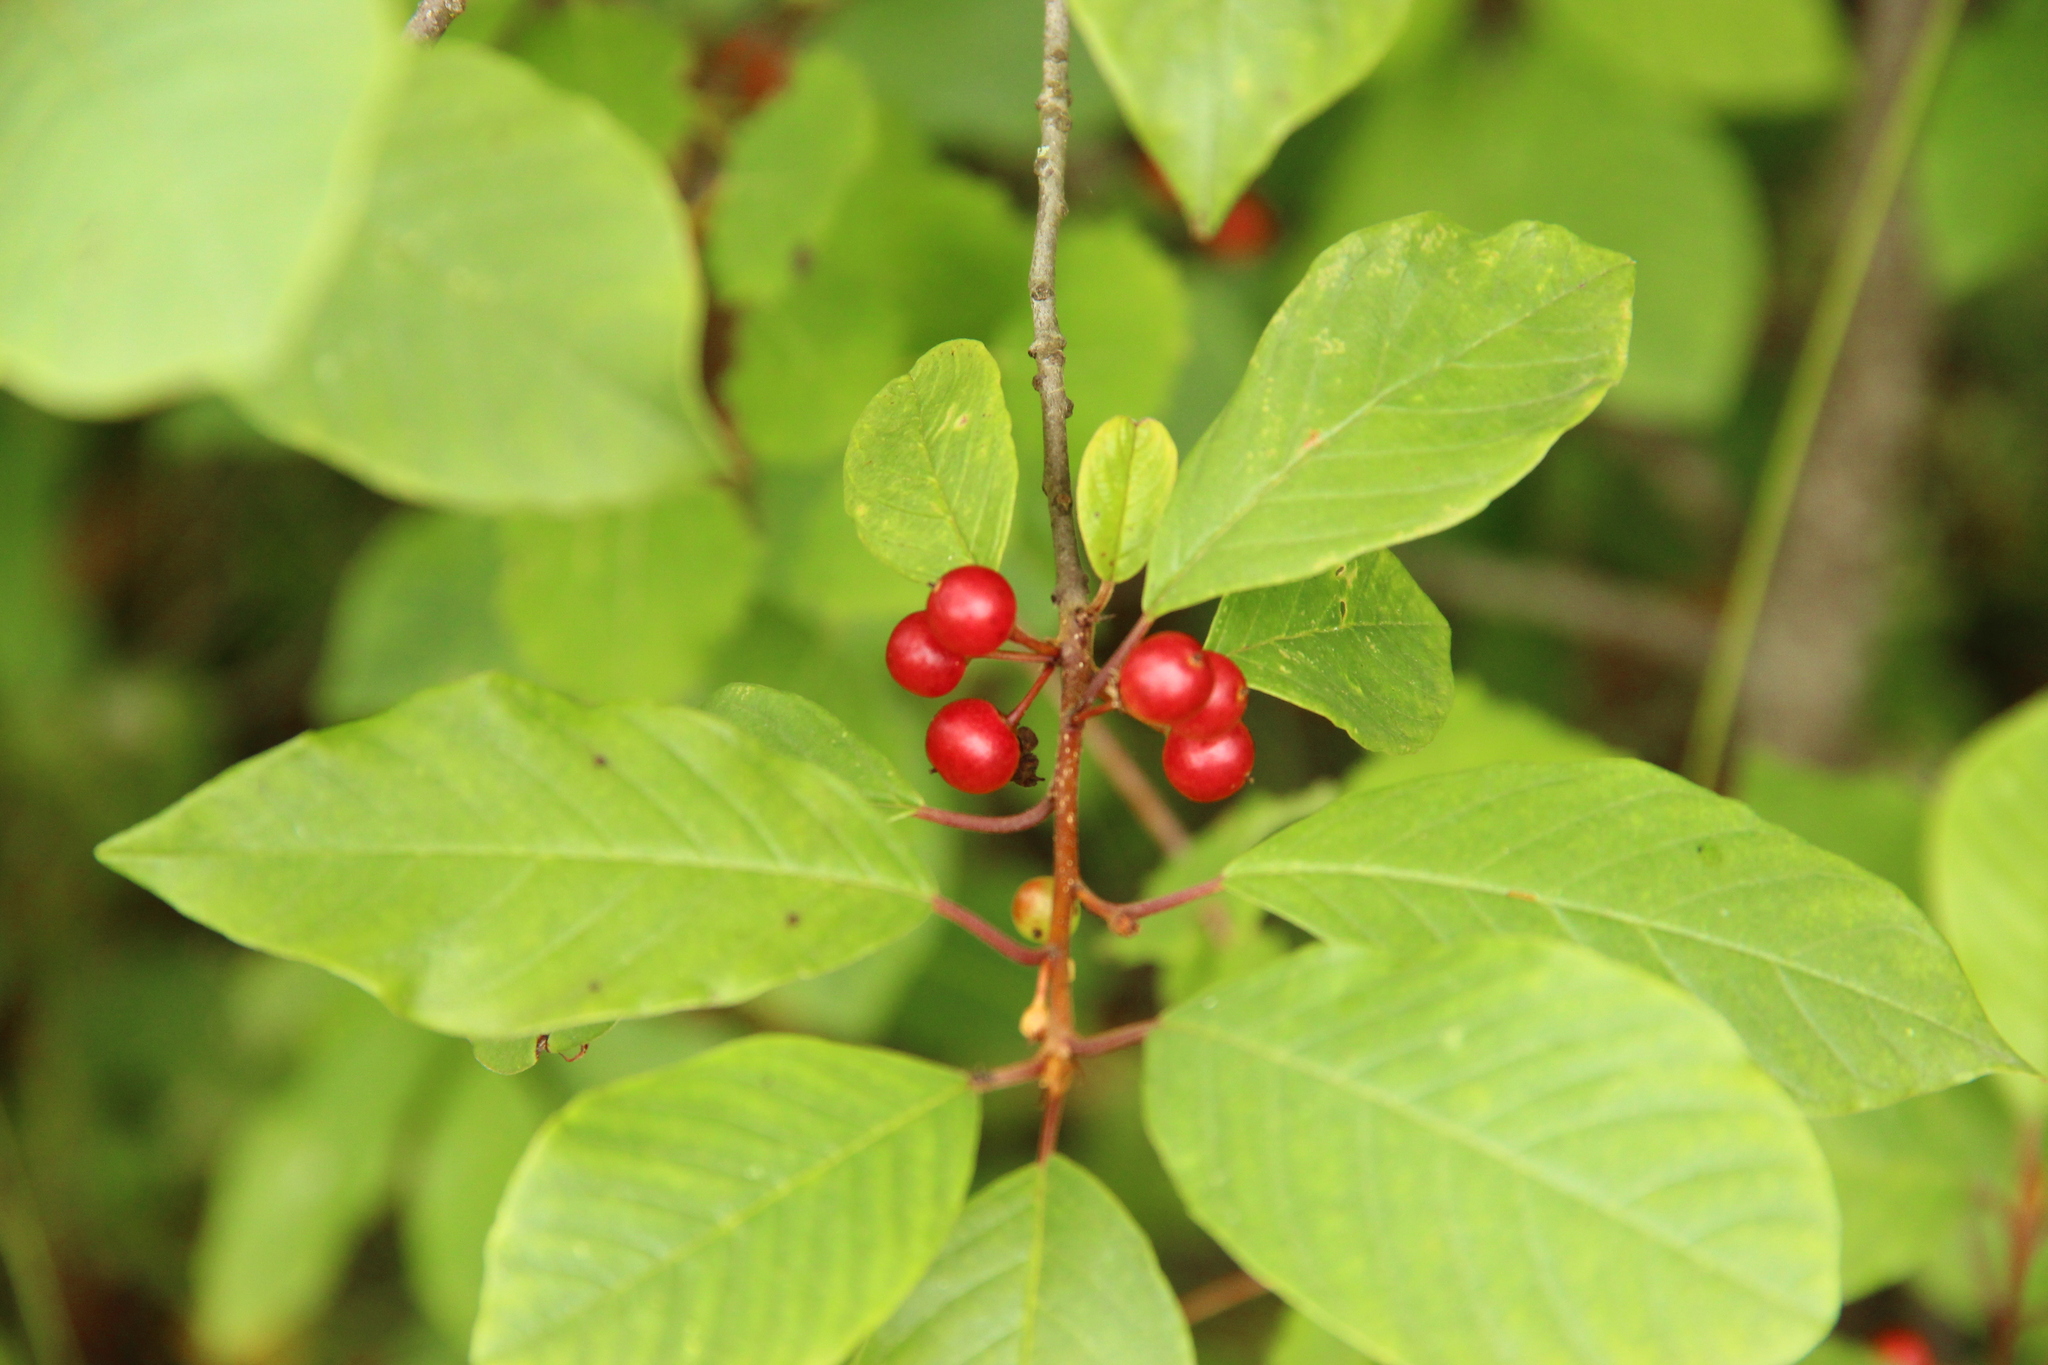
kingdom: Plantae
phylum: Tracheophyta
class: Magnoliopsida
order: Rosales
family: Rhamnaceae
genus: Frangula
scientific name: Frangula alnus
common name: Alder buckthorn
